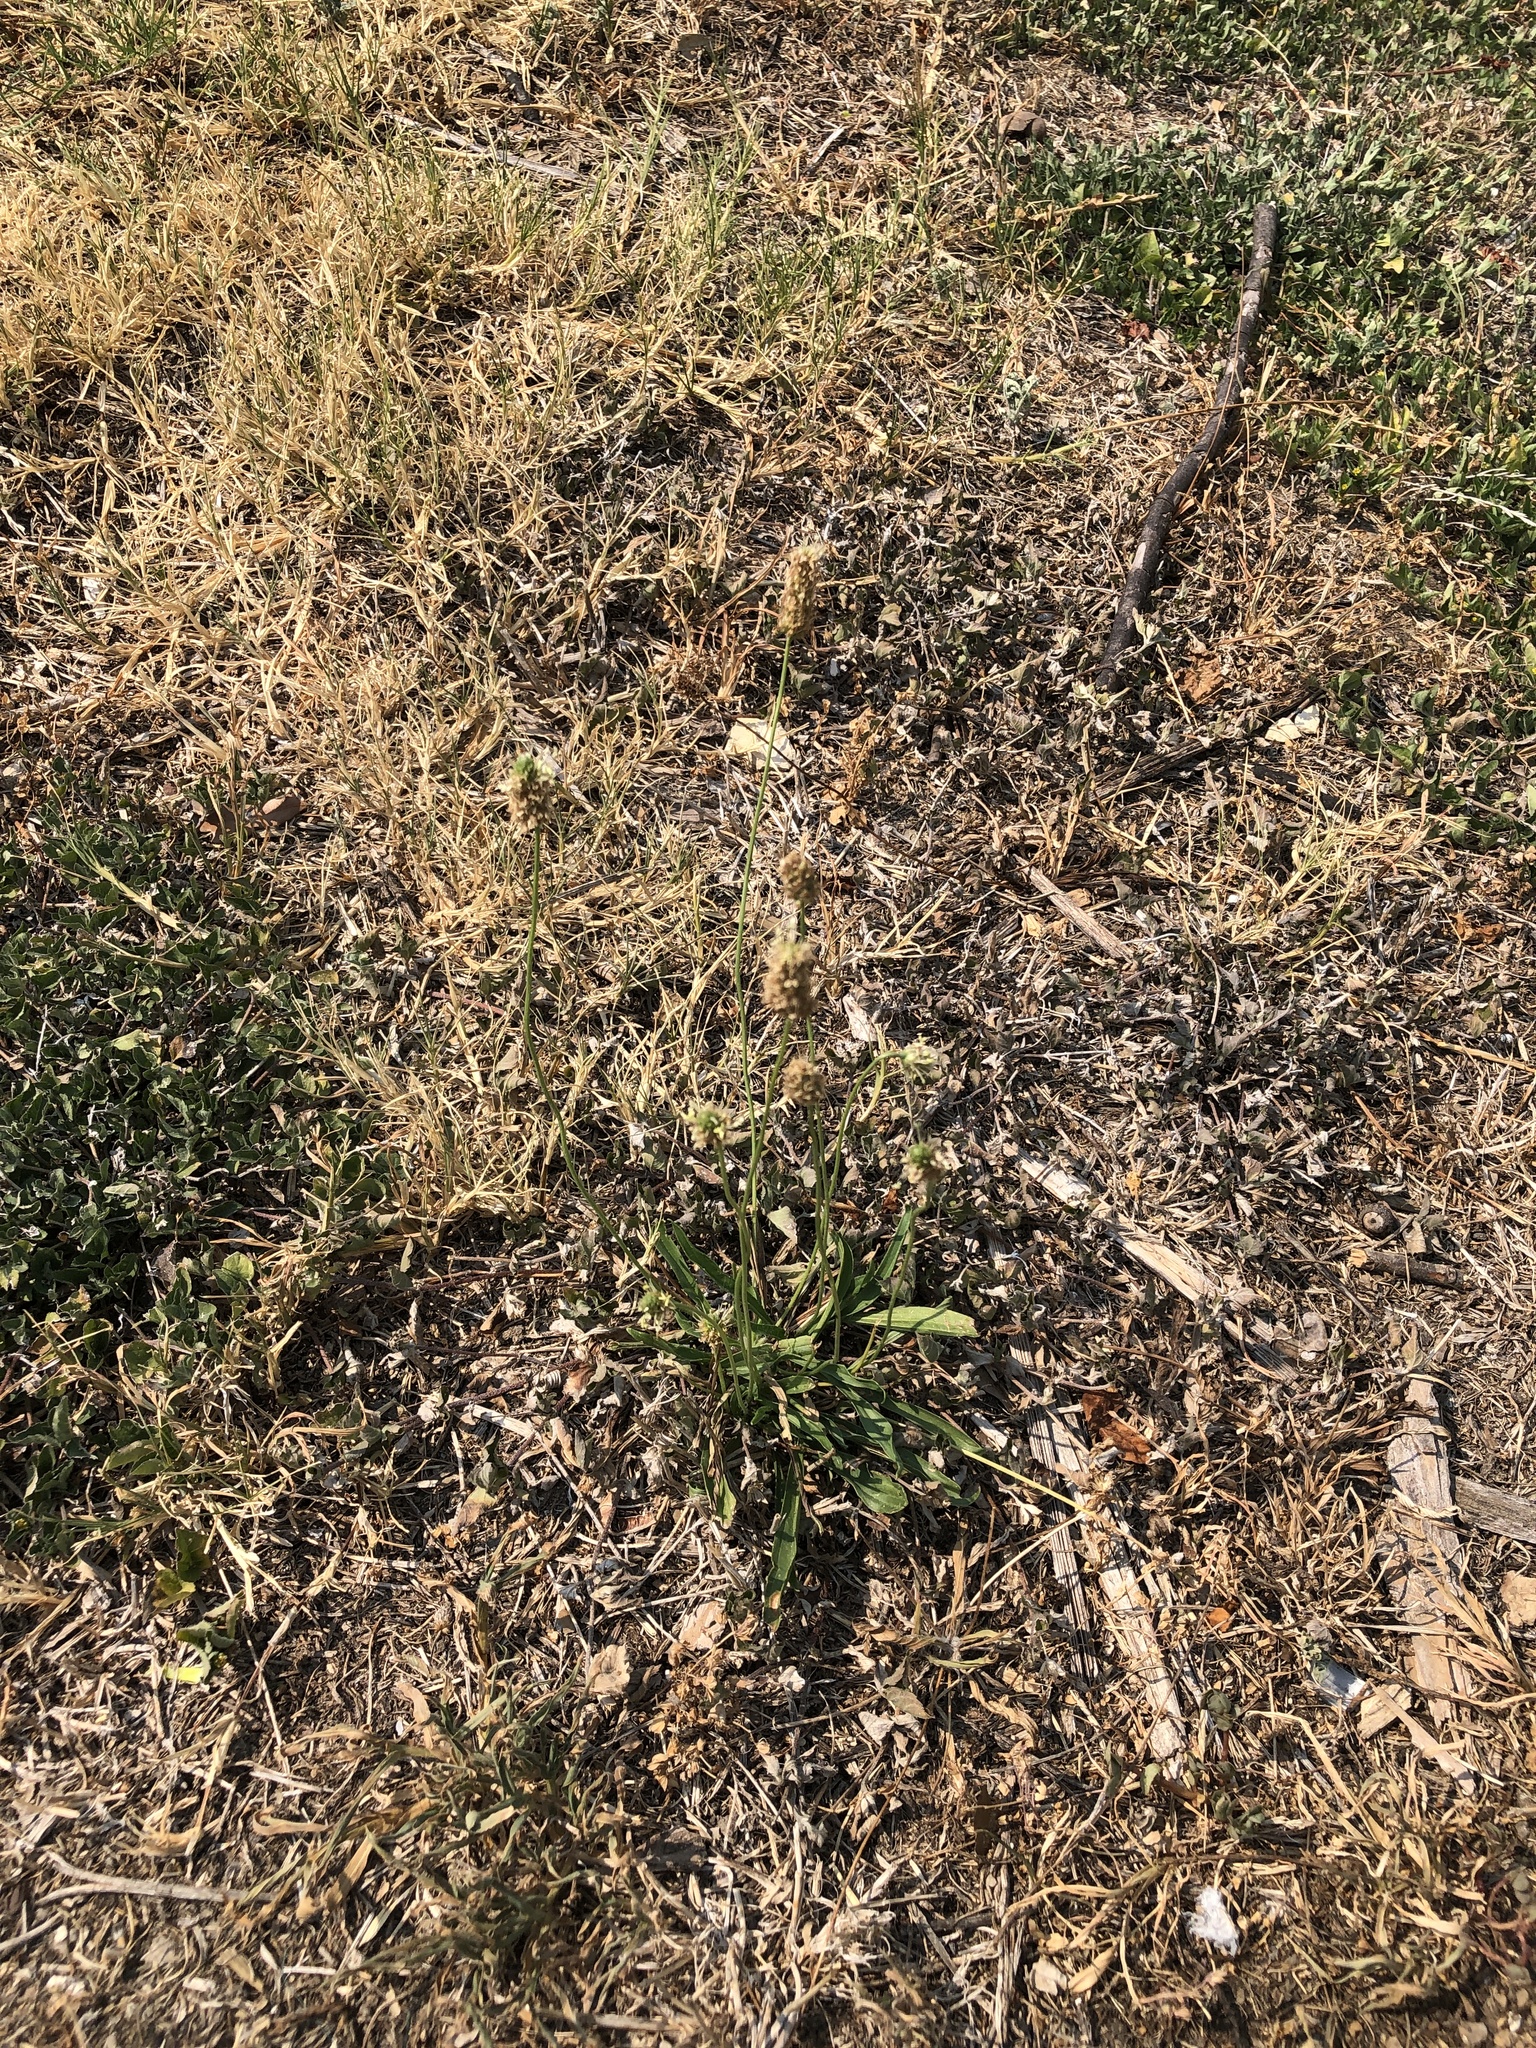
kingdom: Plantae
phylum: Tracheophyta
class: Magnoliopsida
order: Lamiales
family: Plantaginaceae
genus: Plantago
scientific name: Plantago lanceolata
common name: Ribwort plantain
